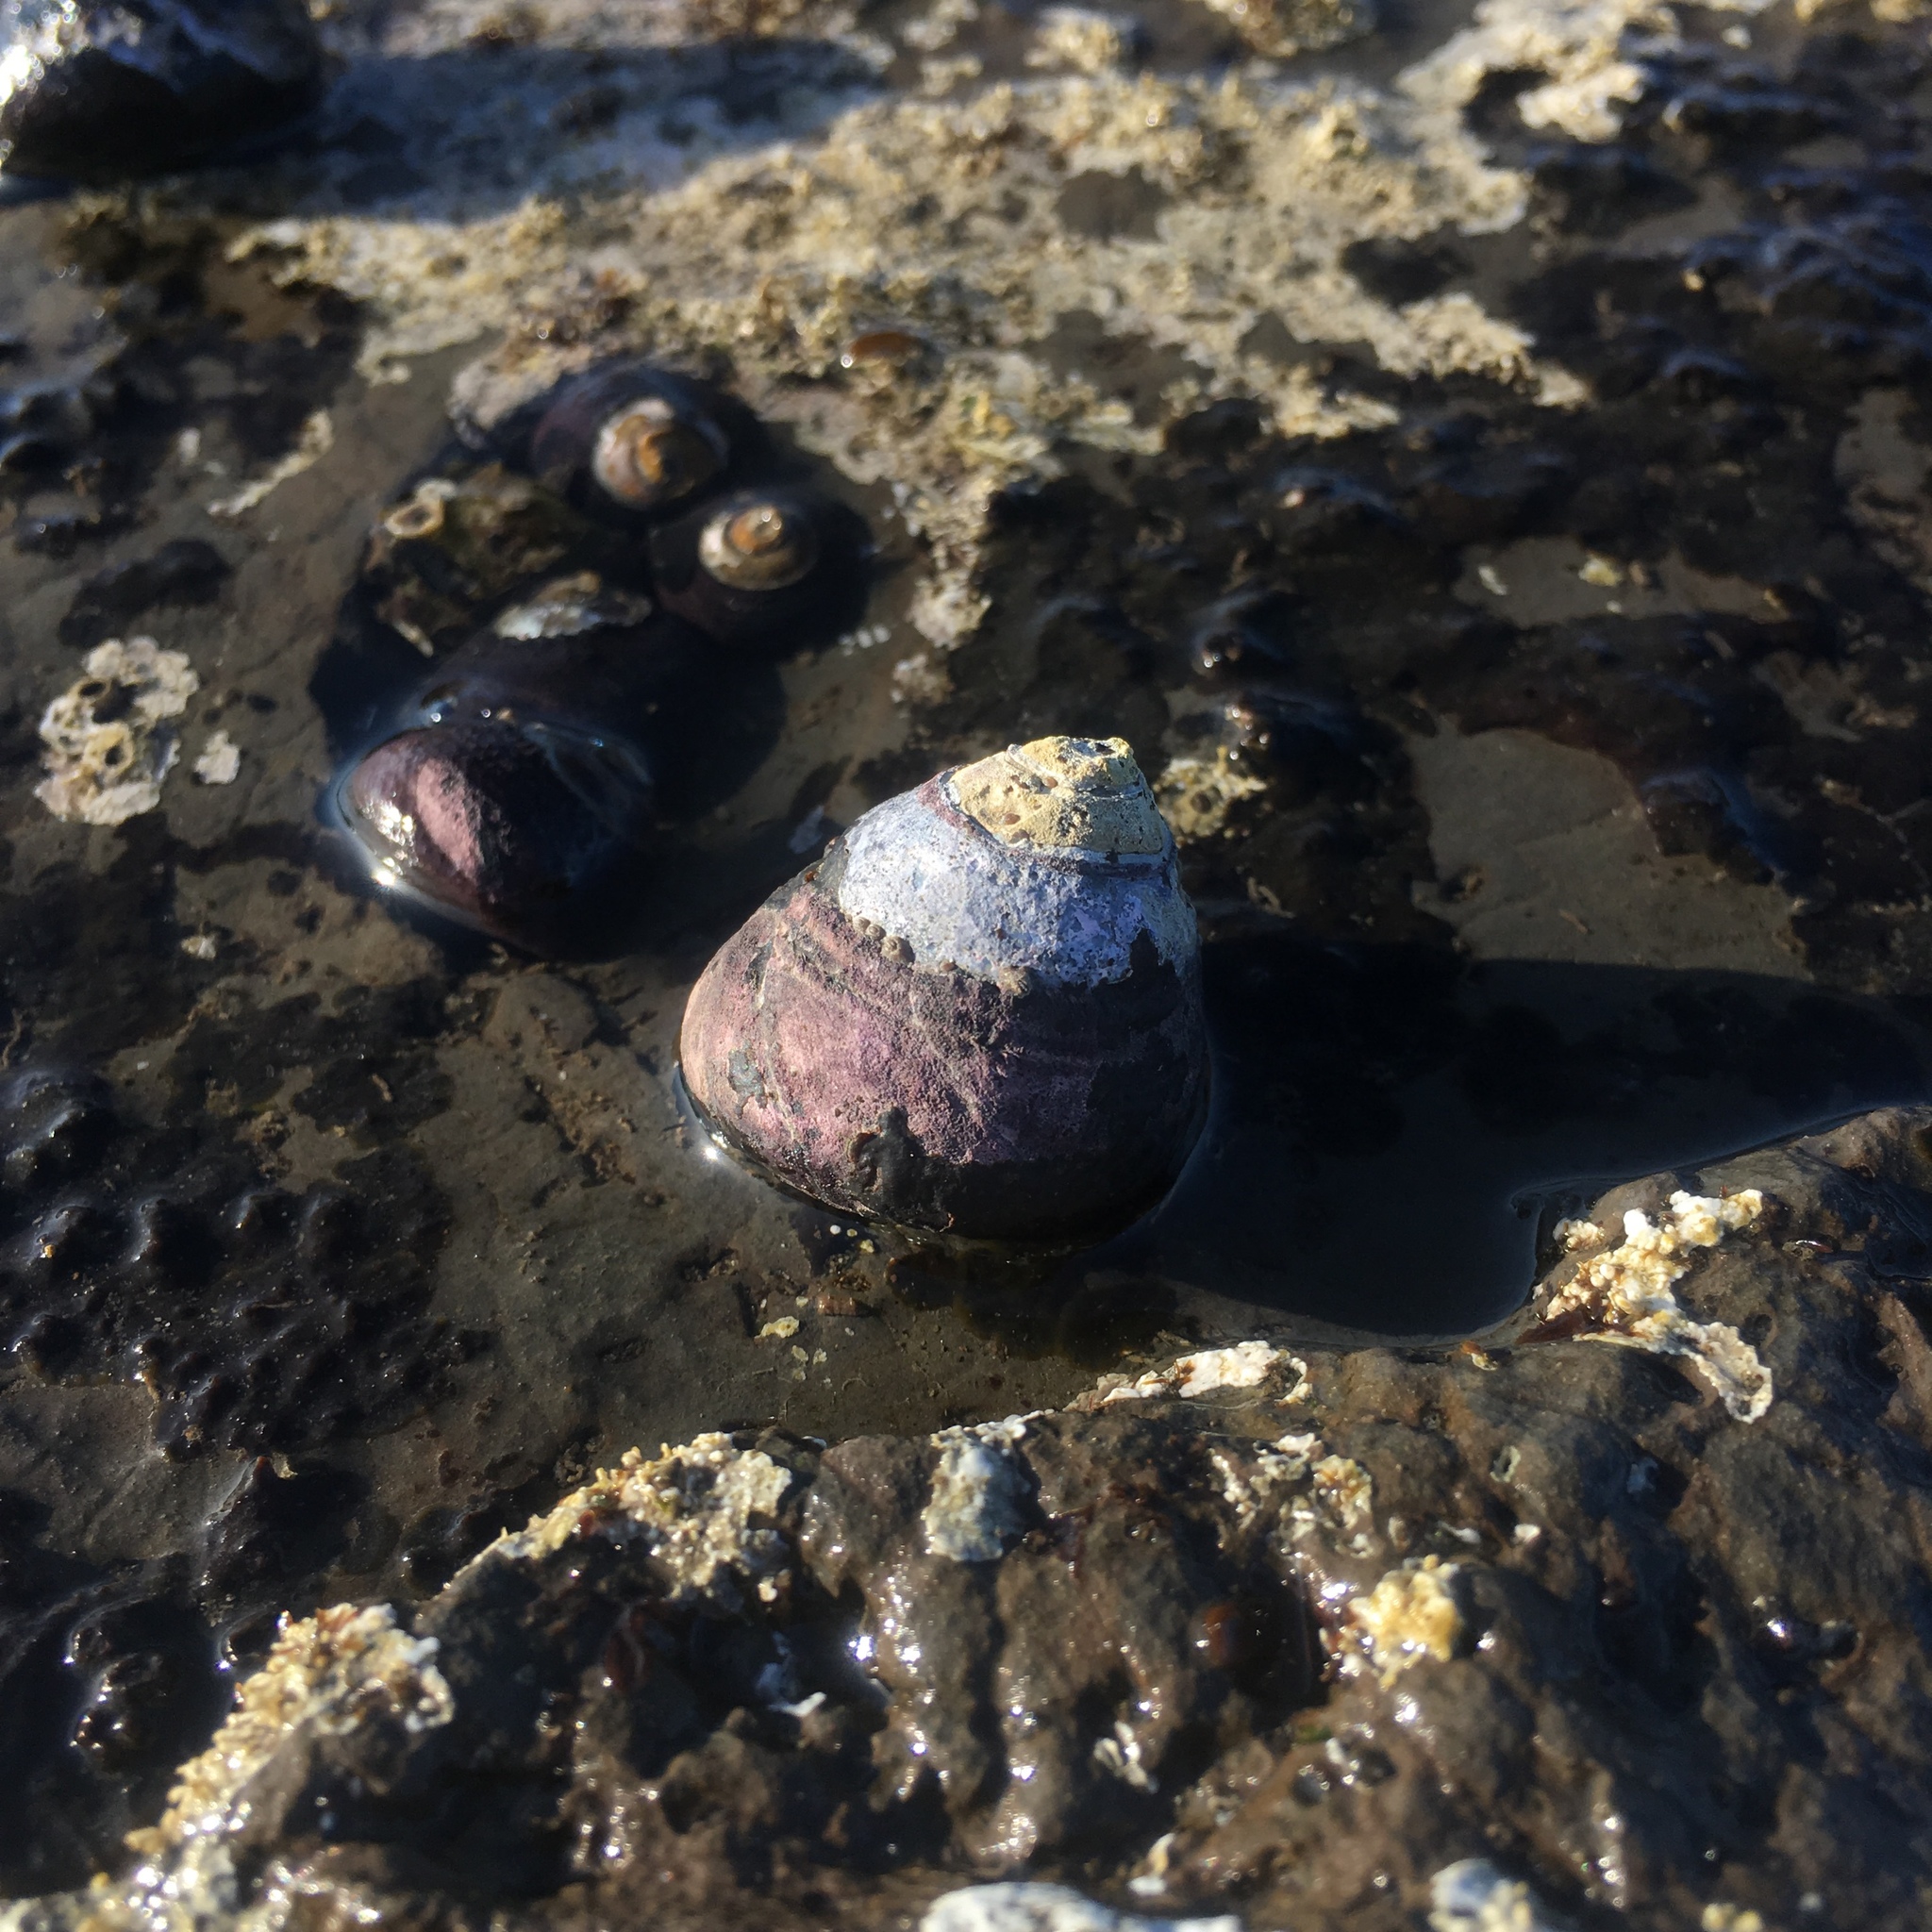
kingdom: Animalia
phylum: Mollusca
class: Gastropoda
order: Trochida
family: Tegulidae
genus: Tegula
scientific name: Tegula funebralis
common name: Black tegula
